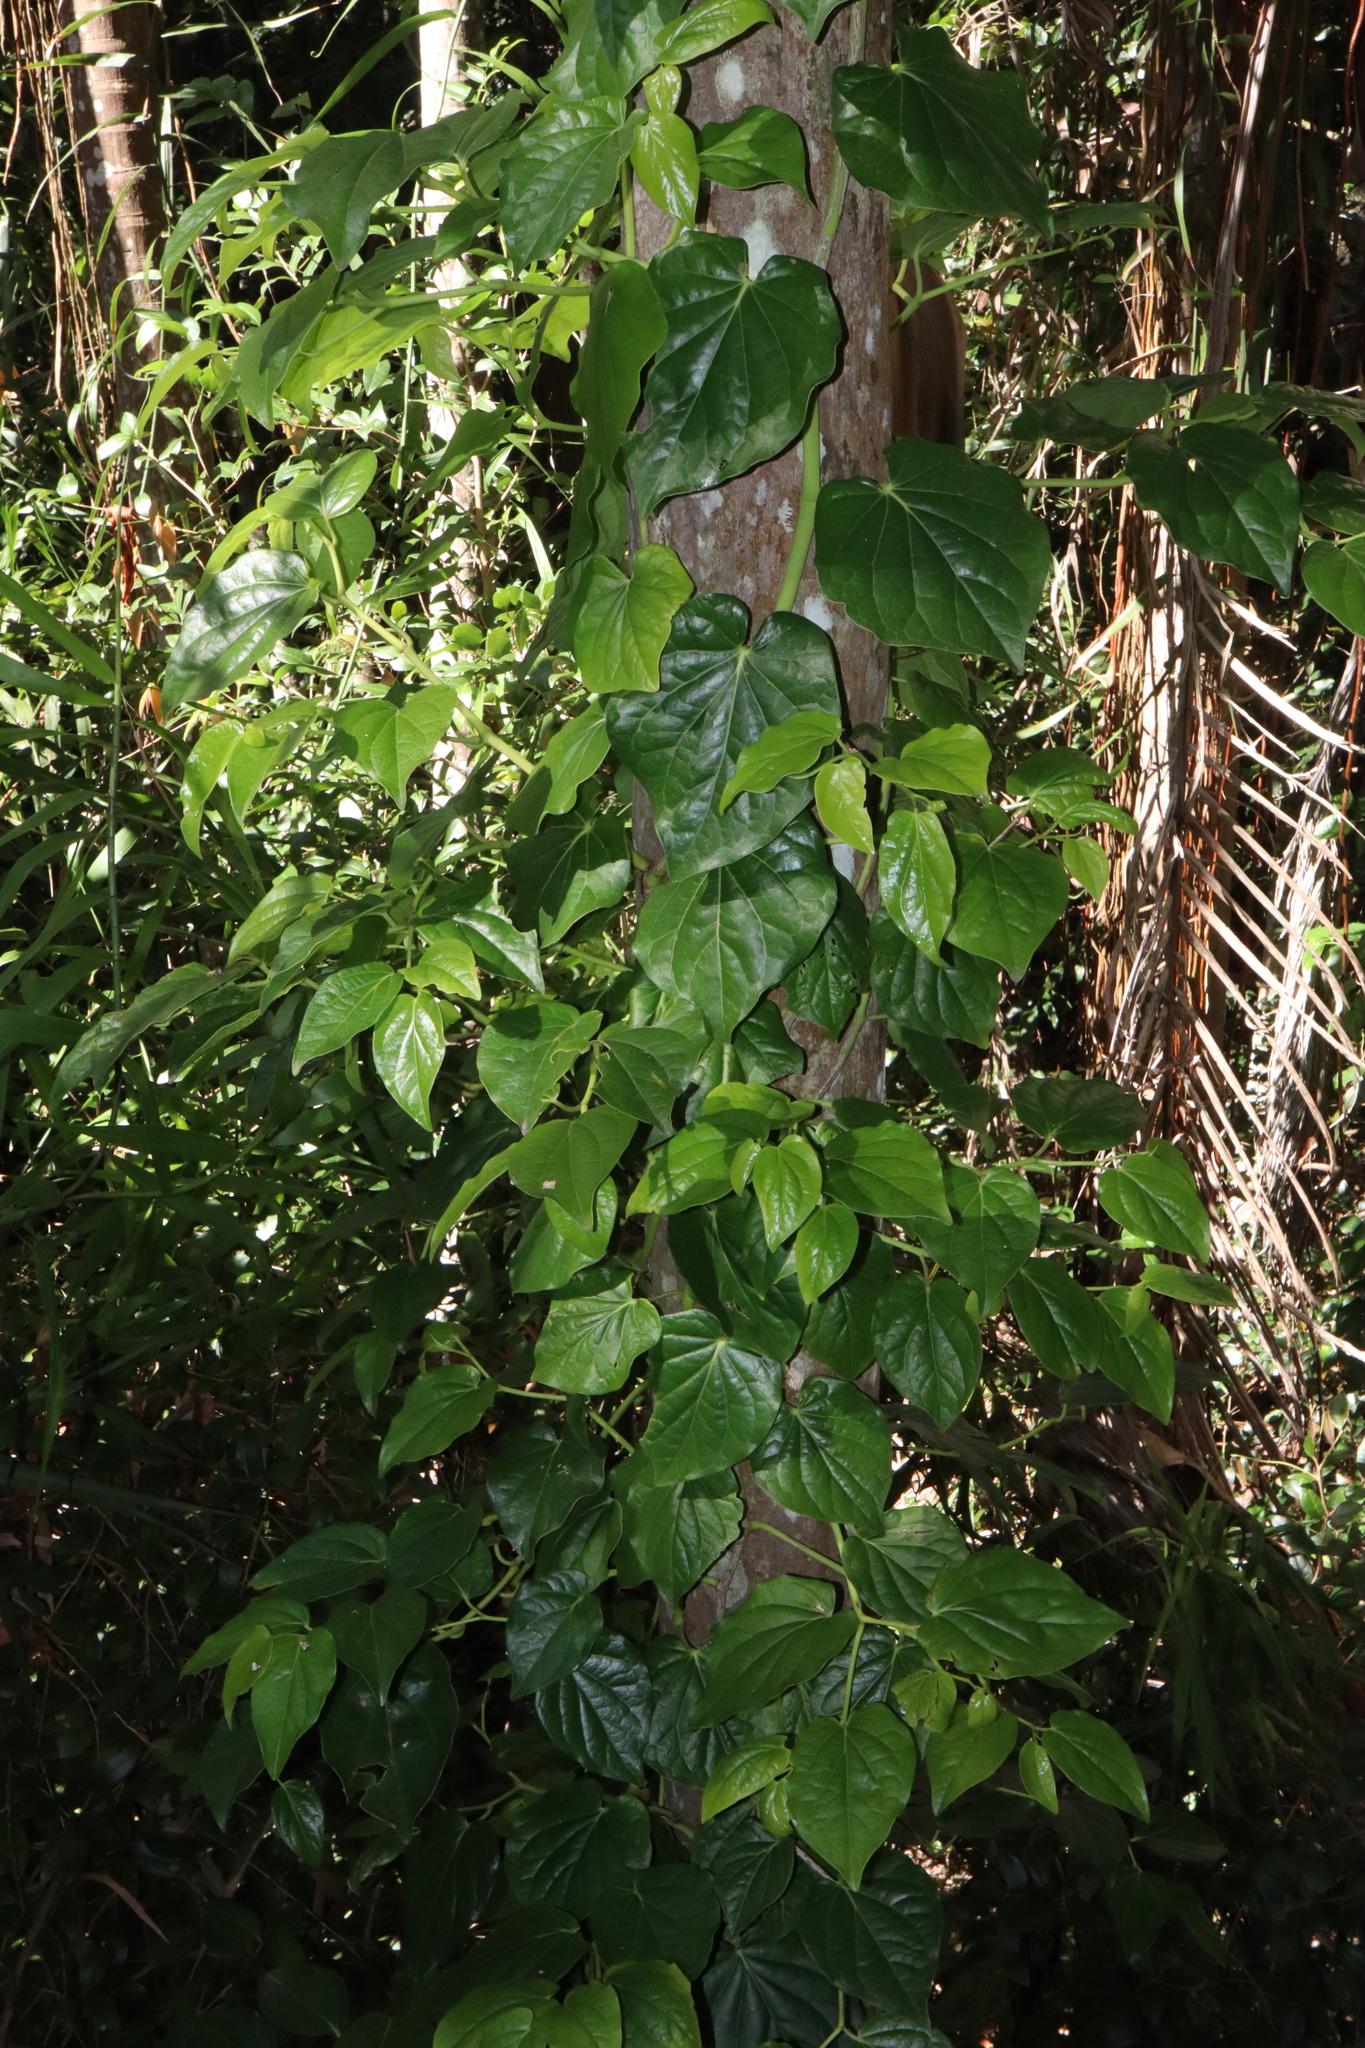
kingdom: Plantae
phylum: Tracheophyta
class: Magnoliopsida
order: Piperales
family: Piperaceae
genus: Piper
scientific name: Piper hederaceum
